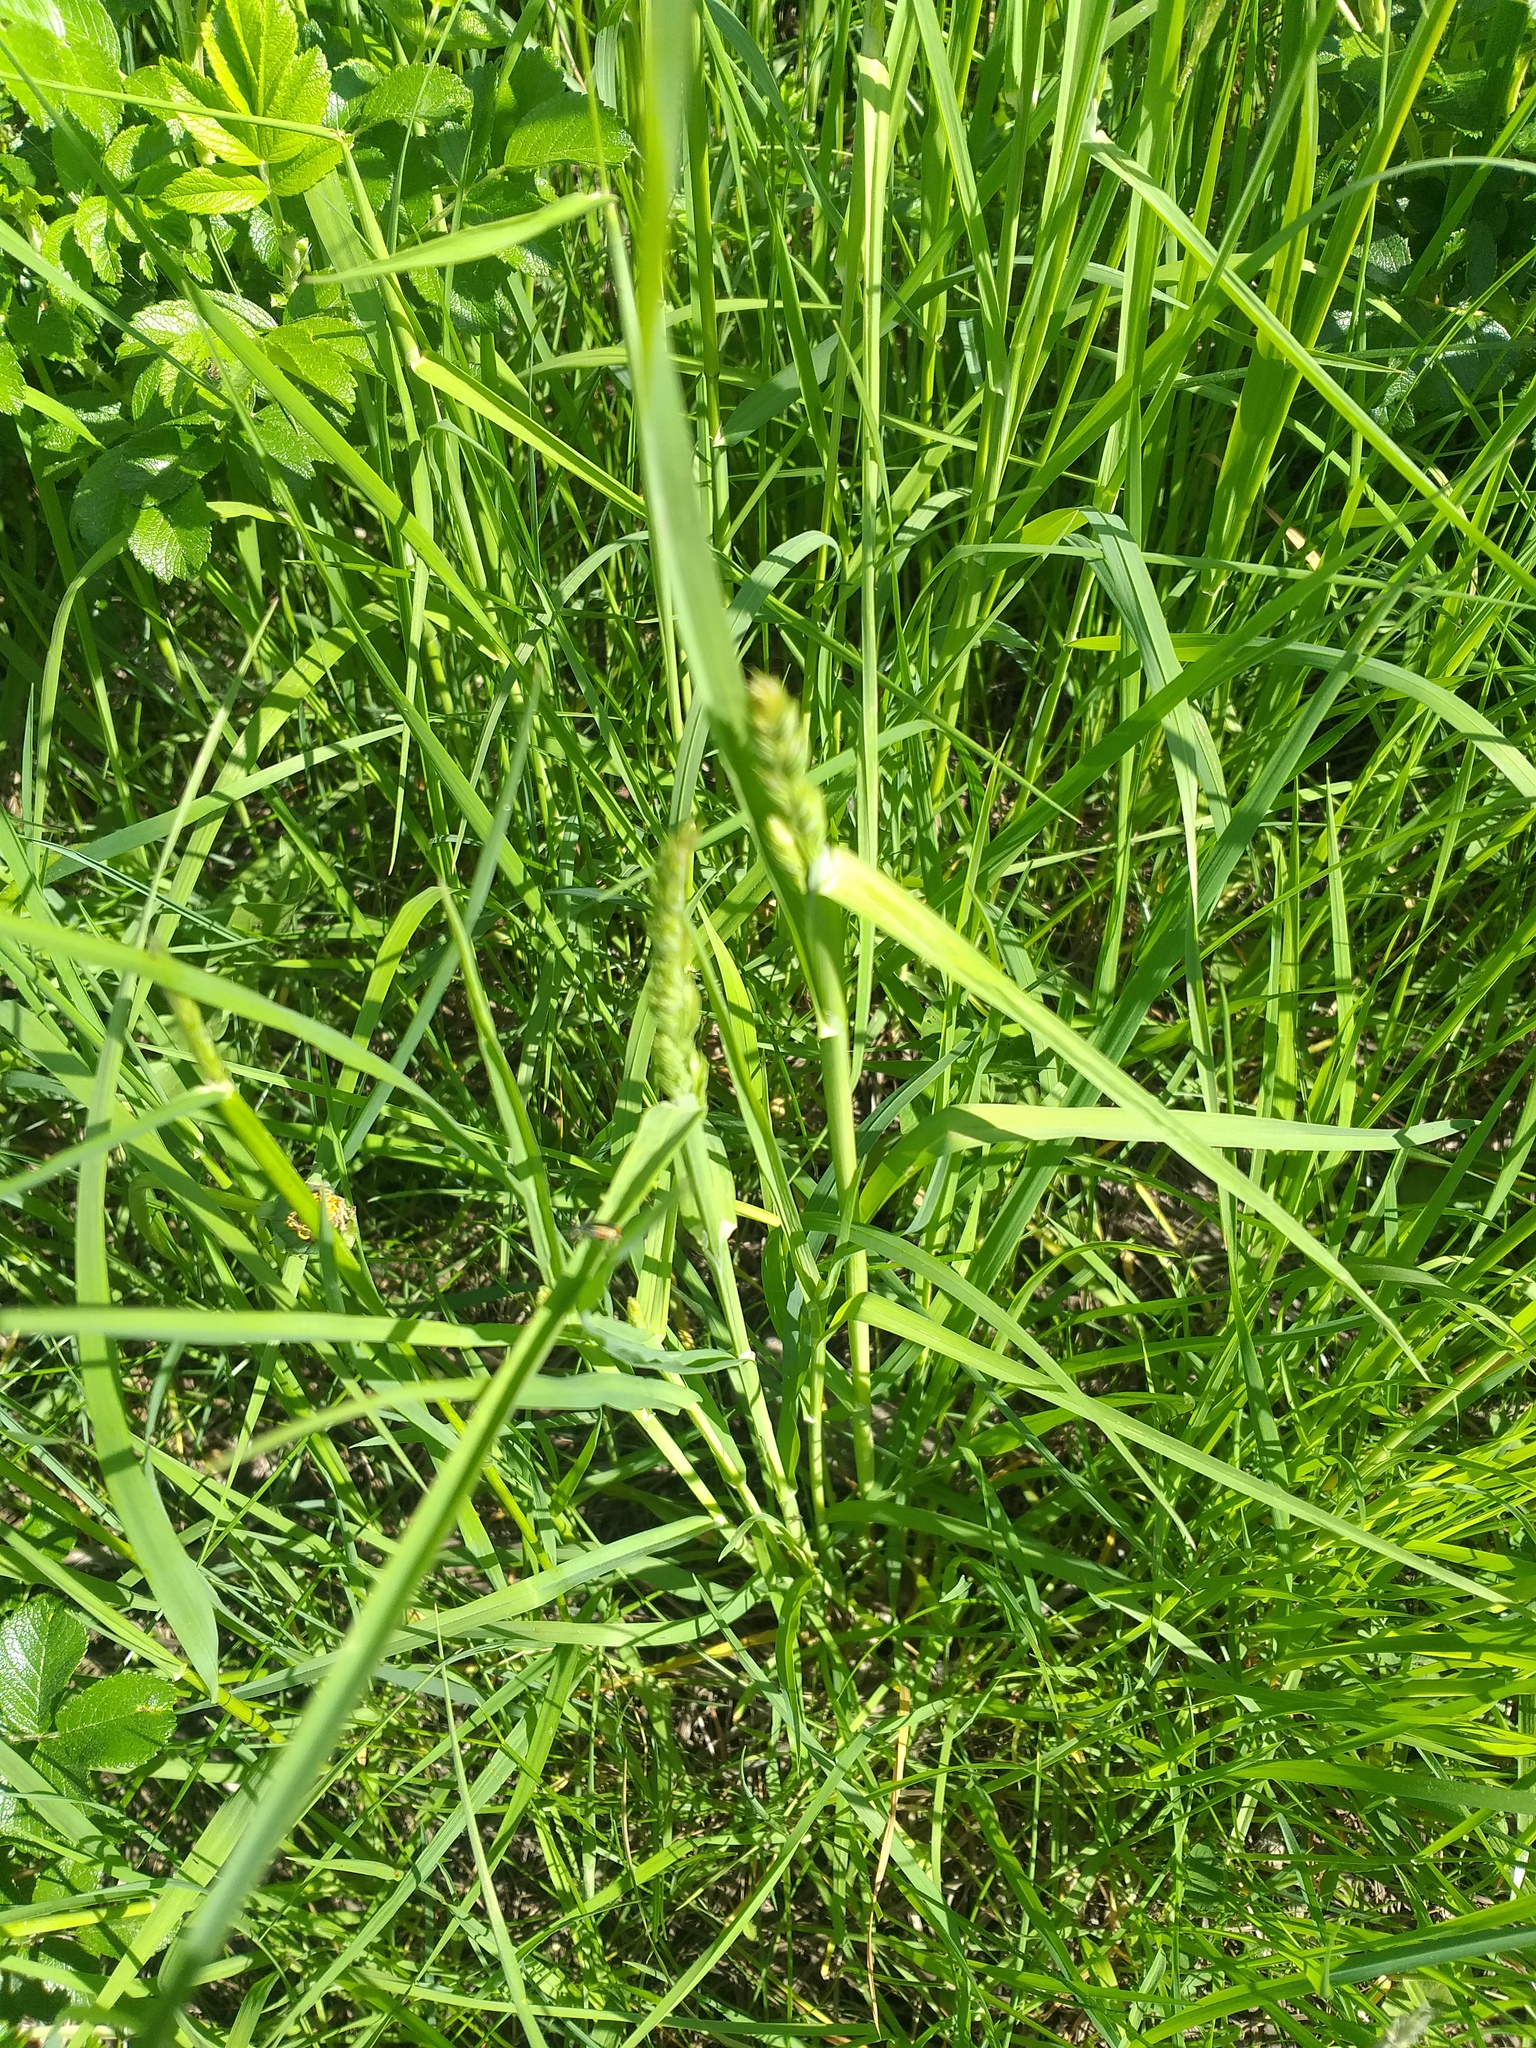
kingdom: Plantae
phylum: Tracheophyta
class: Liliopsida
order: Poales
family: Poaceae
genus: Dactylis
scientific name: Dactylis glomerata
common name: Orchardgrass
